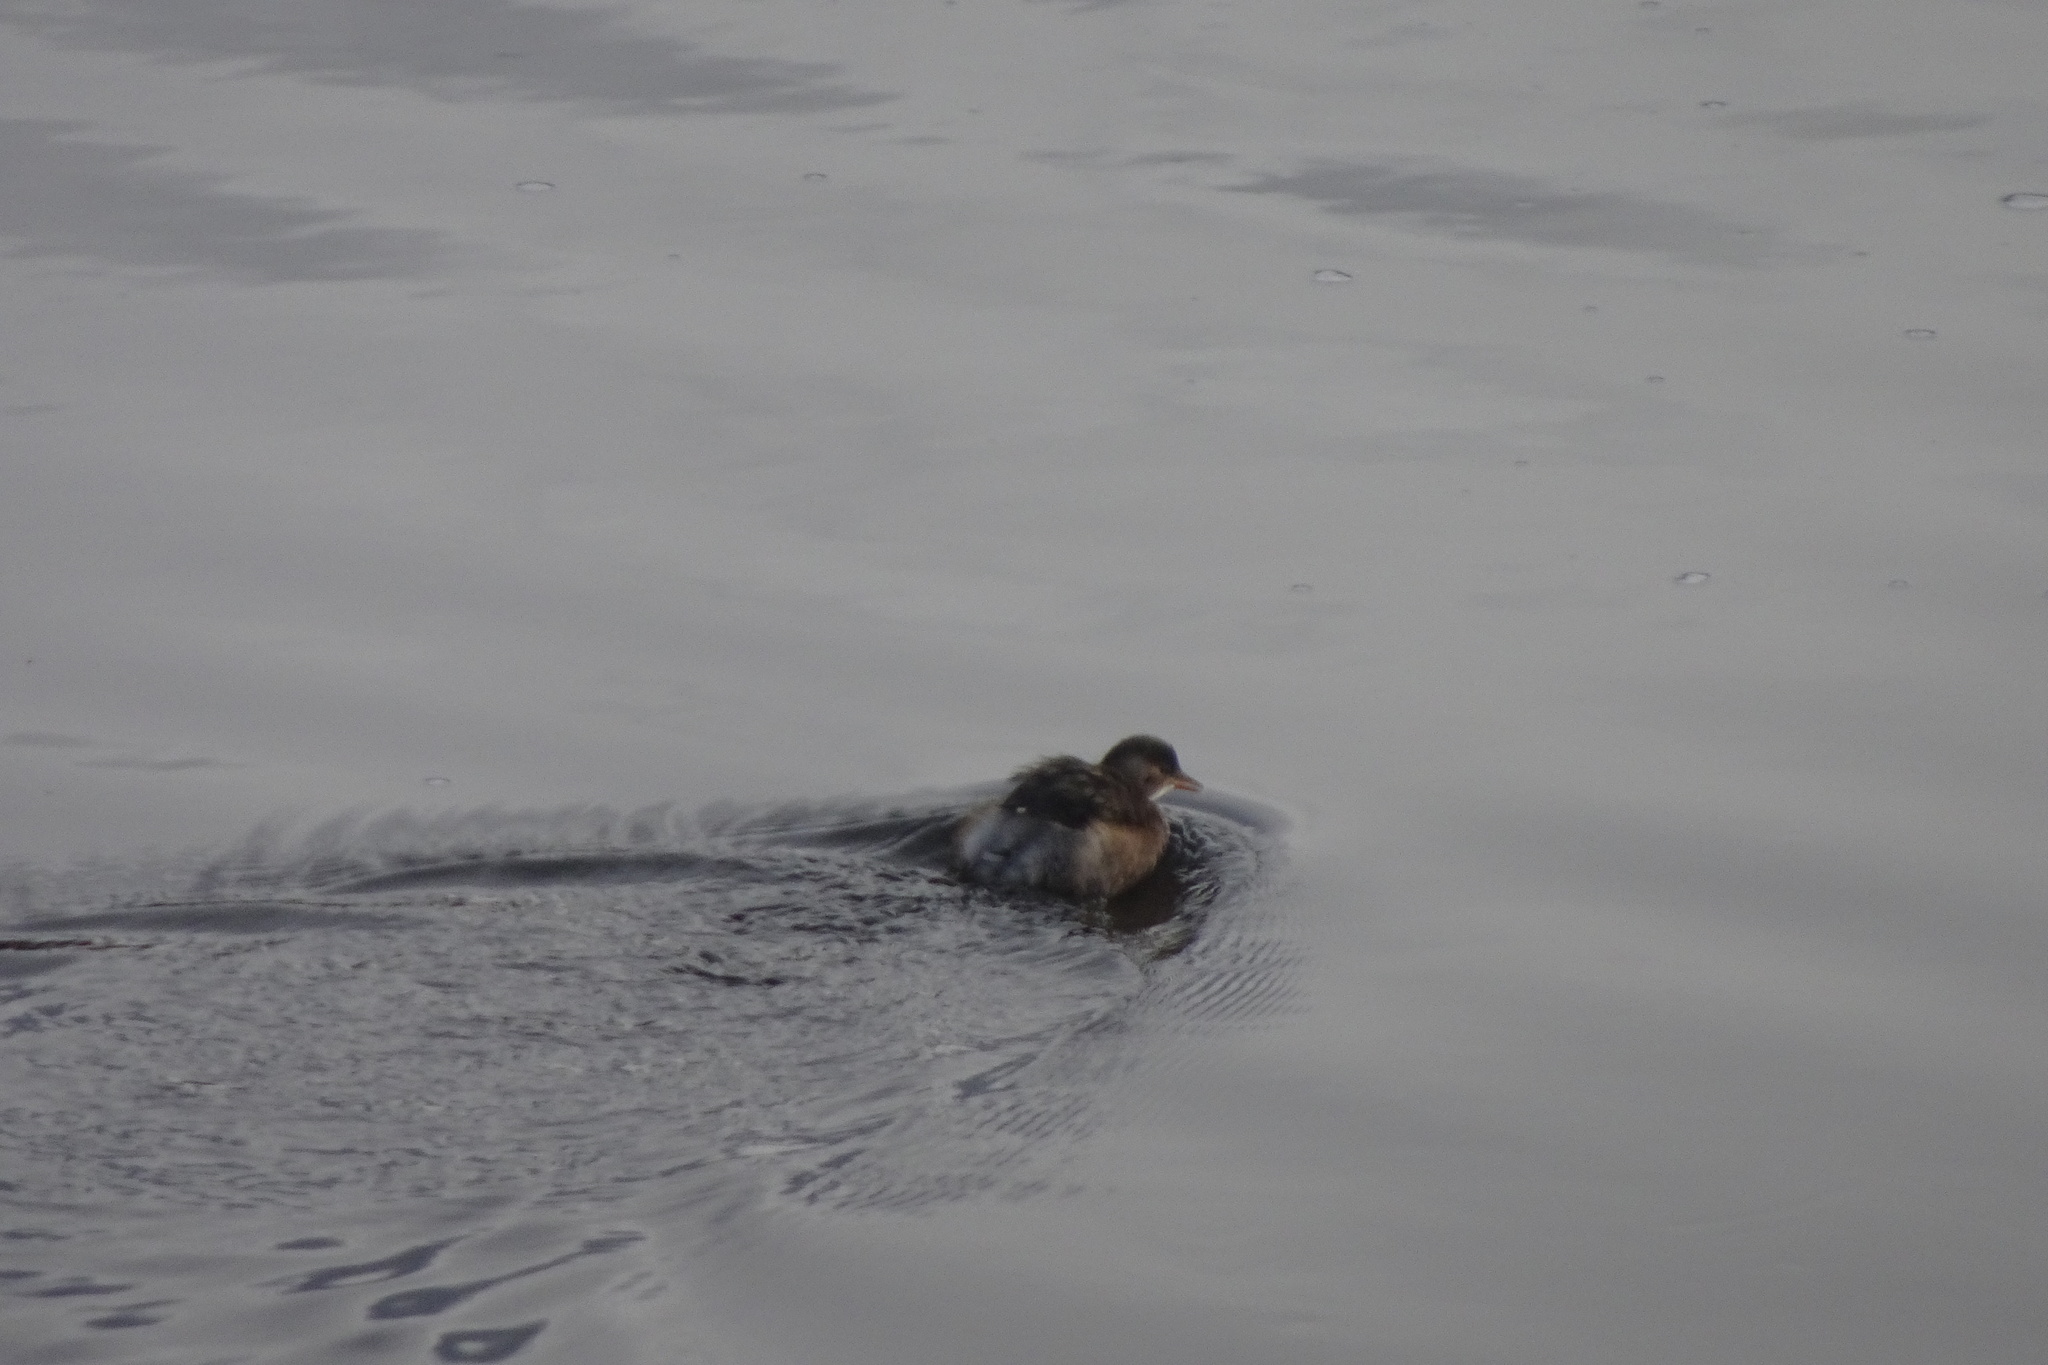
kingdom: Animalia
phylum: Chordata
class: Aves
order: Podicipediformes
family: Podicipedidae
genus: Tachybaptus
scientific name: Tachybaptus ruficollis
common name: Little grebe
